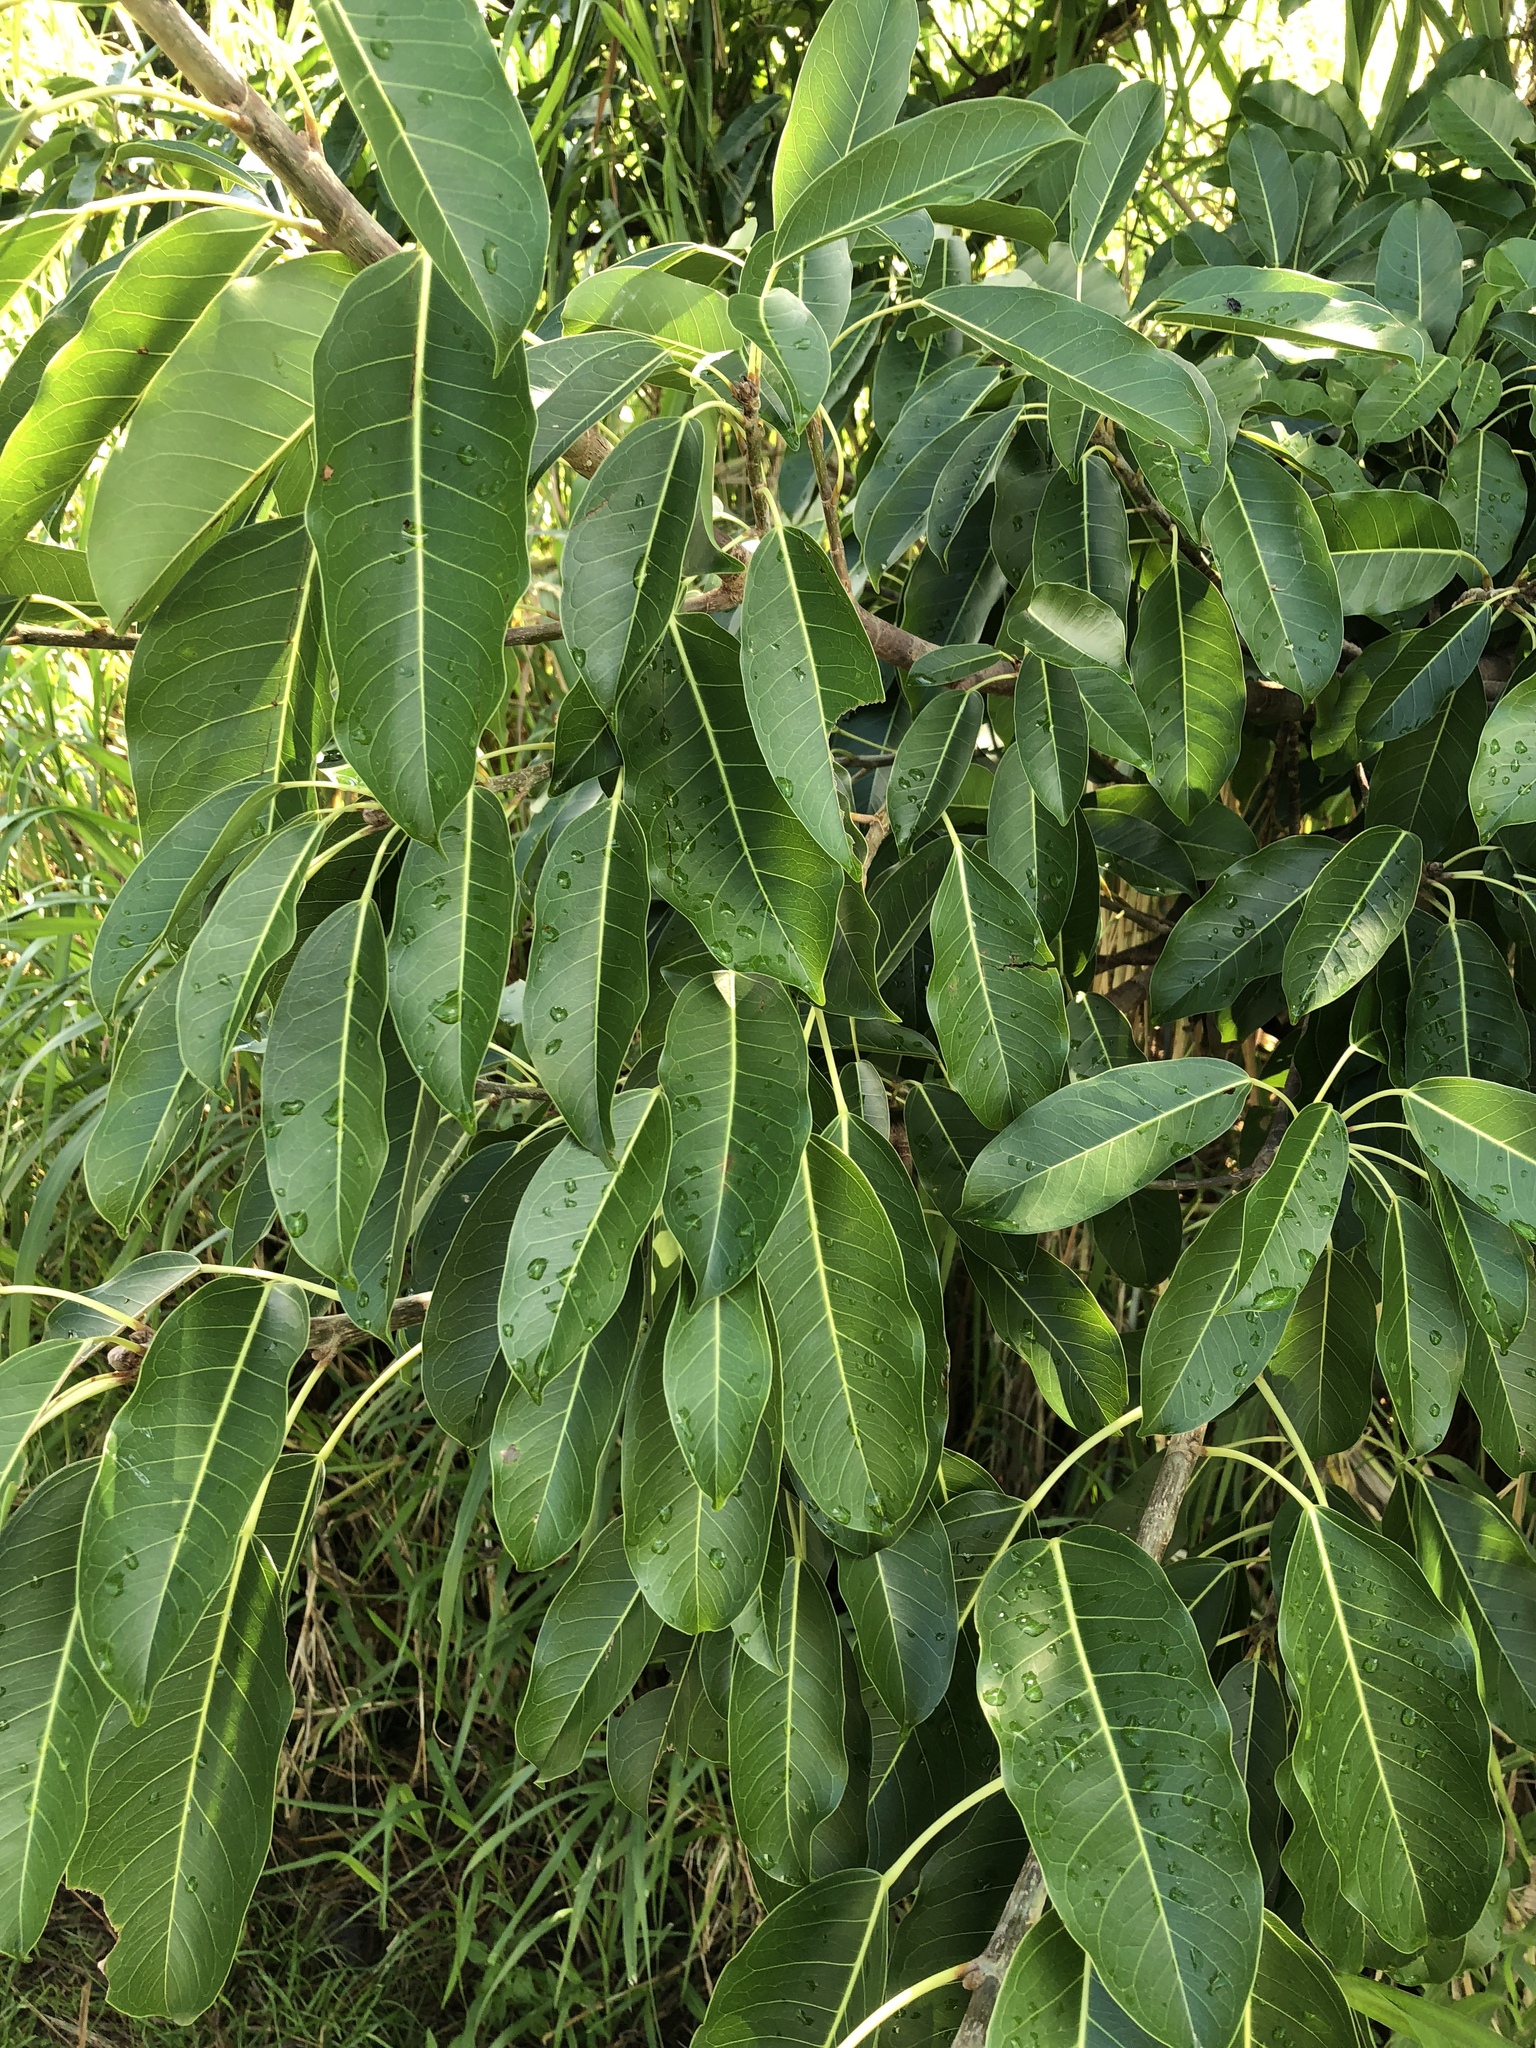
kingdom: Plantae
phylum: Tracheophyta
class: Magnoliopsida
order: Rosales
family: Moraceae
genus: Ficus
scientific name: Ficus subpisocarpa
